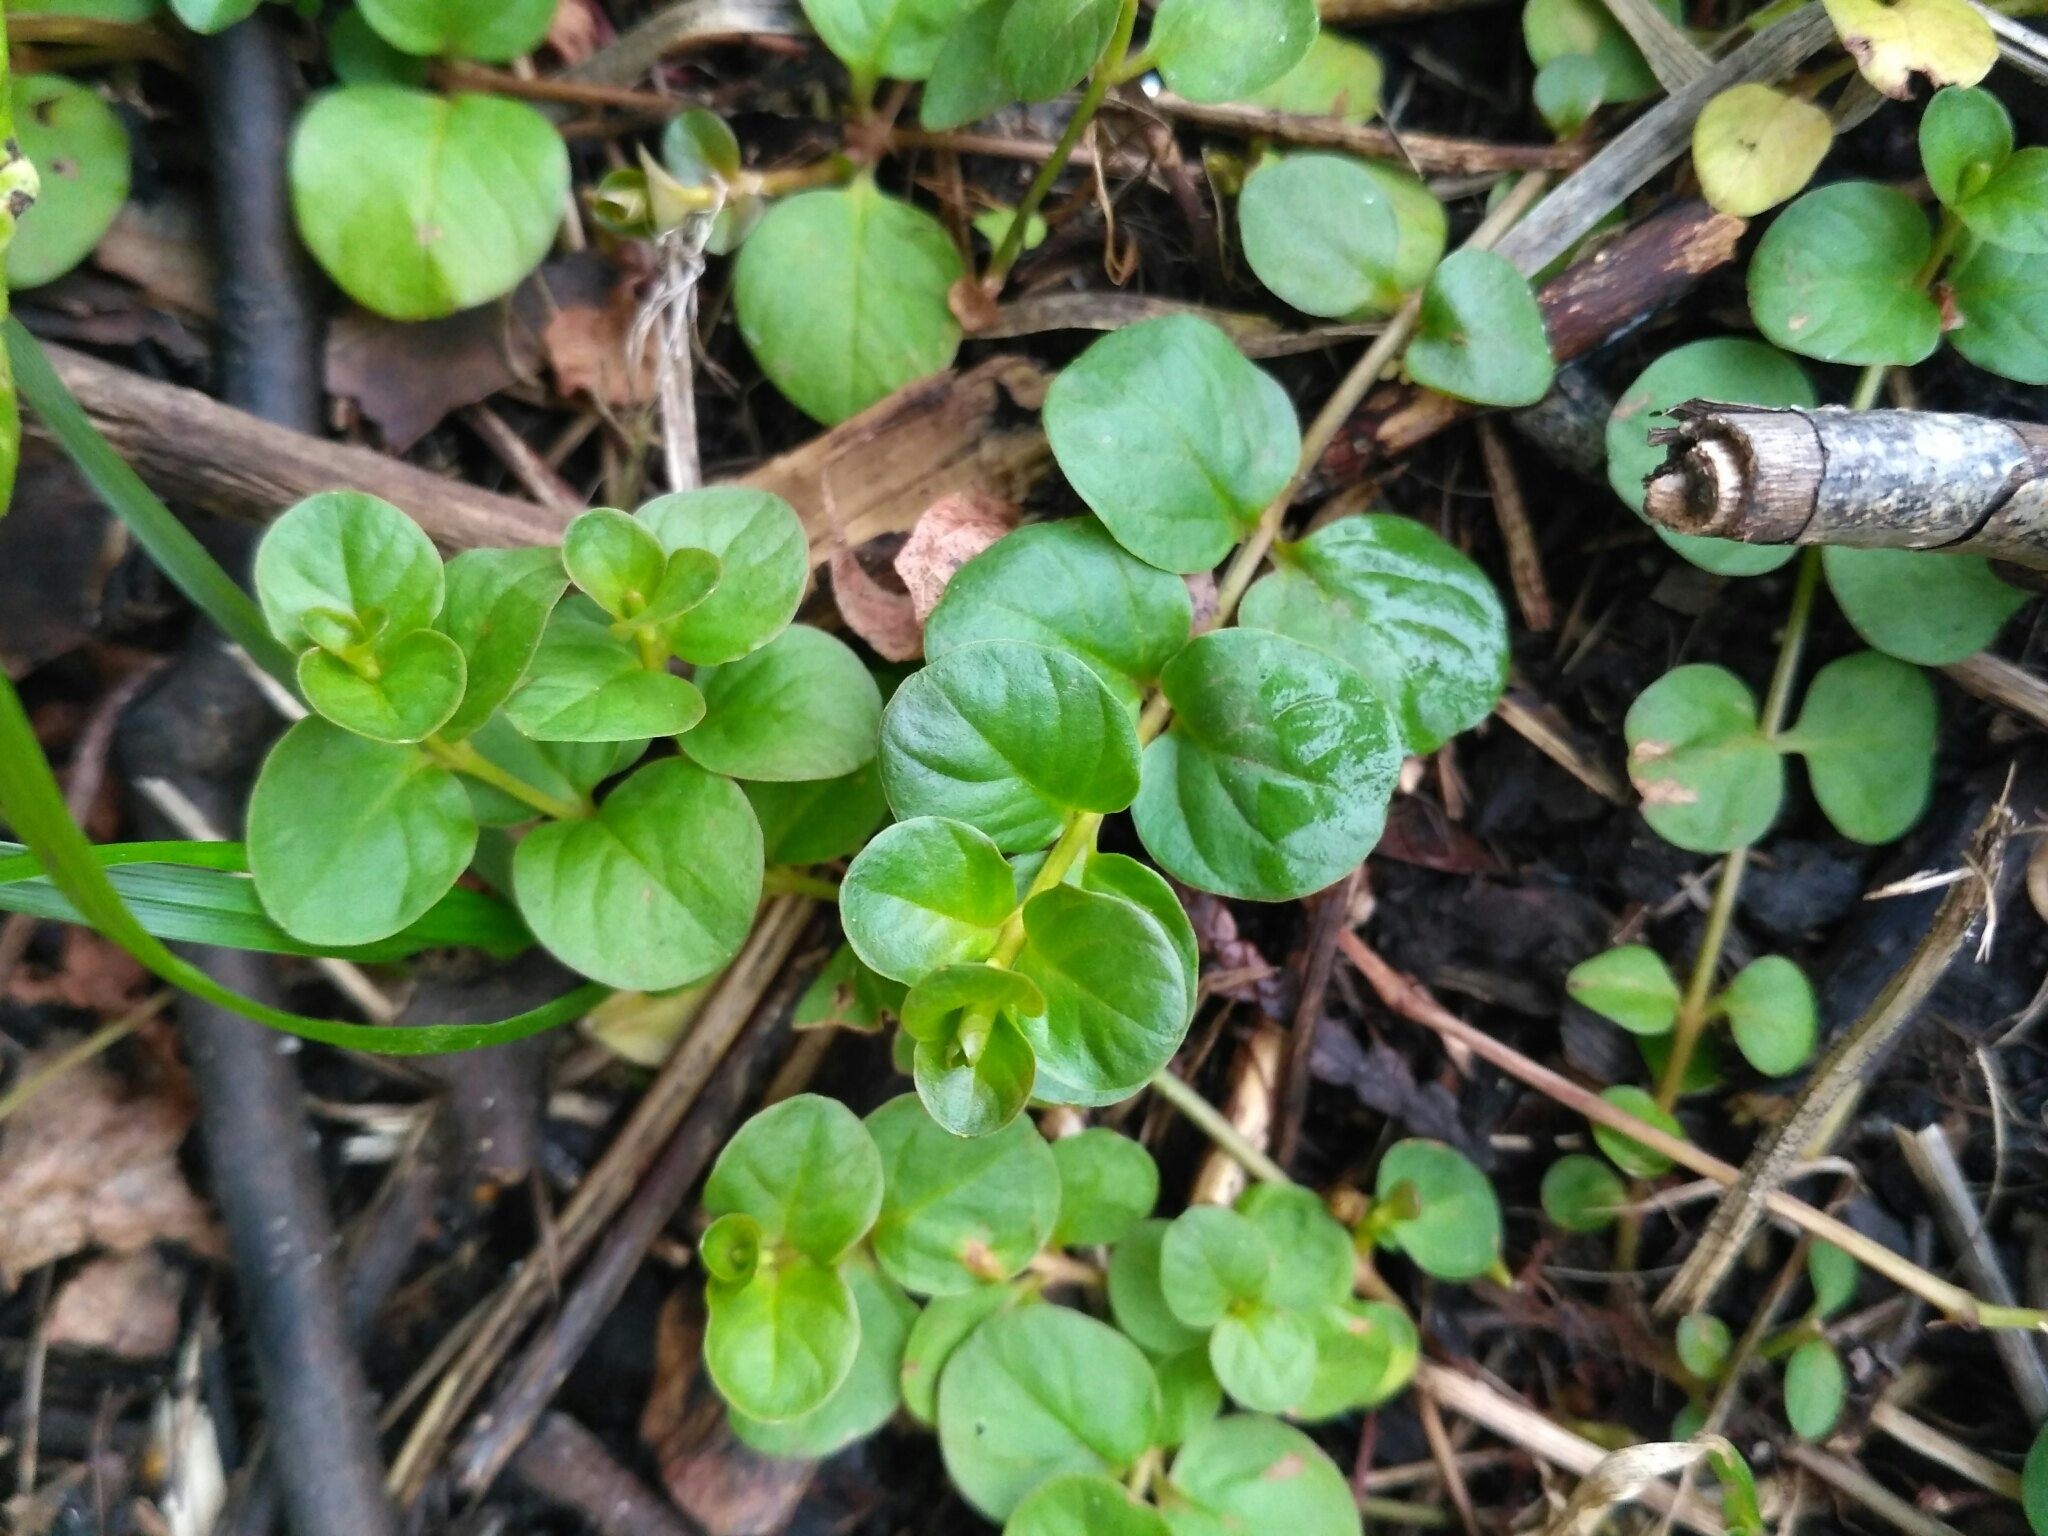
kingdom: Plantae
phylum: Tracheophyta
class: Magnoliopsida
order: Ericales
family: Primulaceae
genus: Lysimachia
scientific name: Lysimachia nummularia
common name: Moneywort
